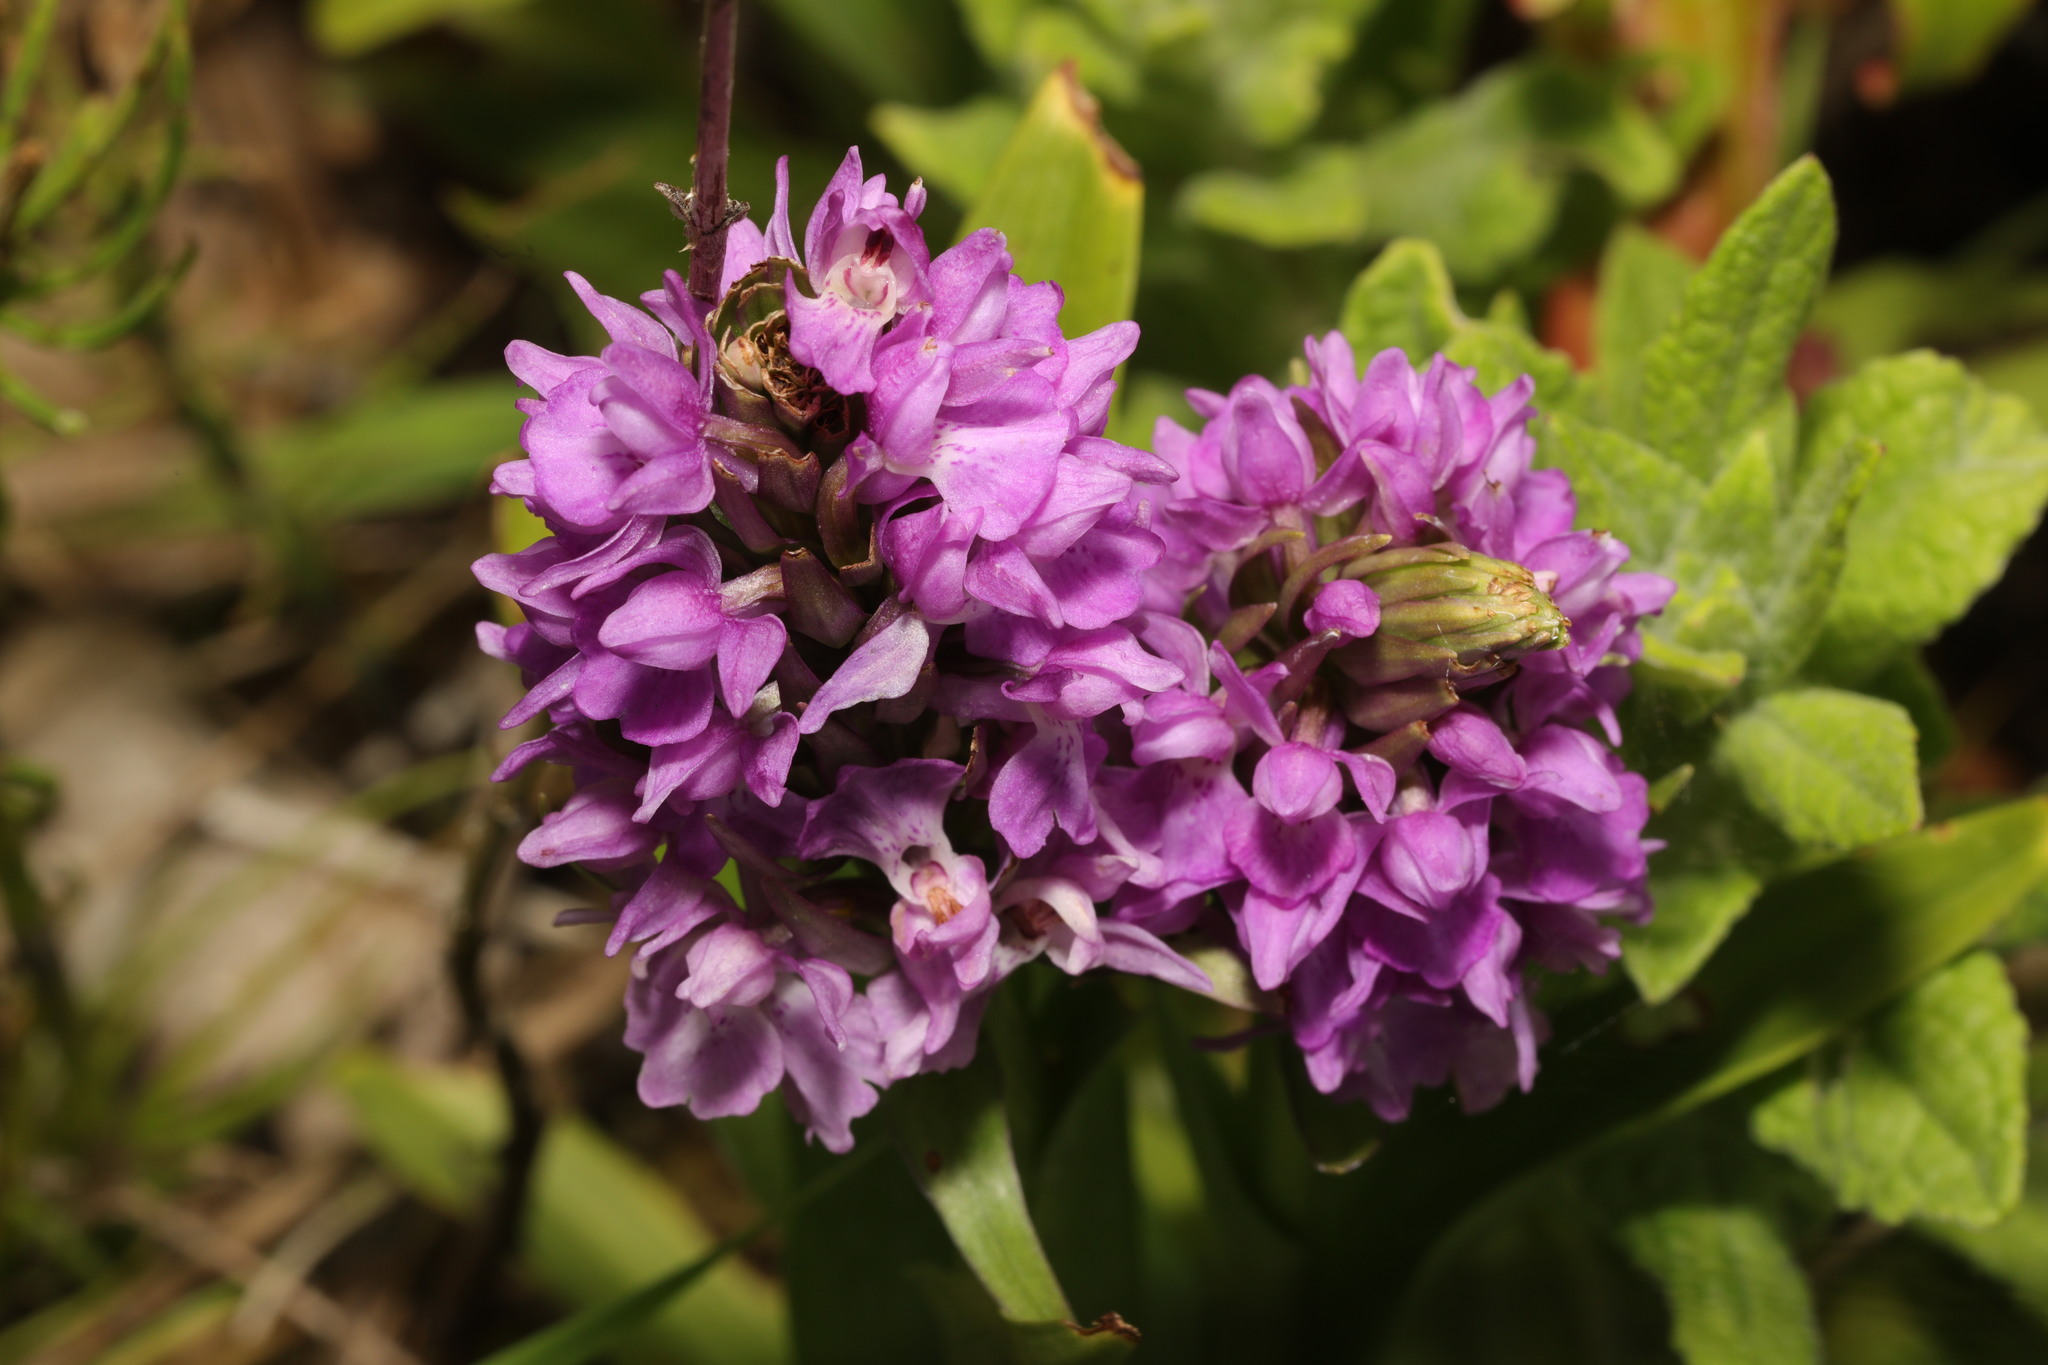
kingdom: Plantae
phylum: Tracheophyta
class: Liliopsida
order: Asparagales
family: Orchidaceae
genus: Dactylorhiza
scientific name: Dactylorhiza majalis
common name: Marsh orchid
